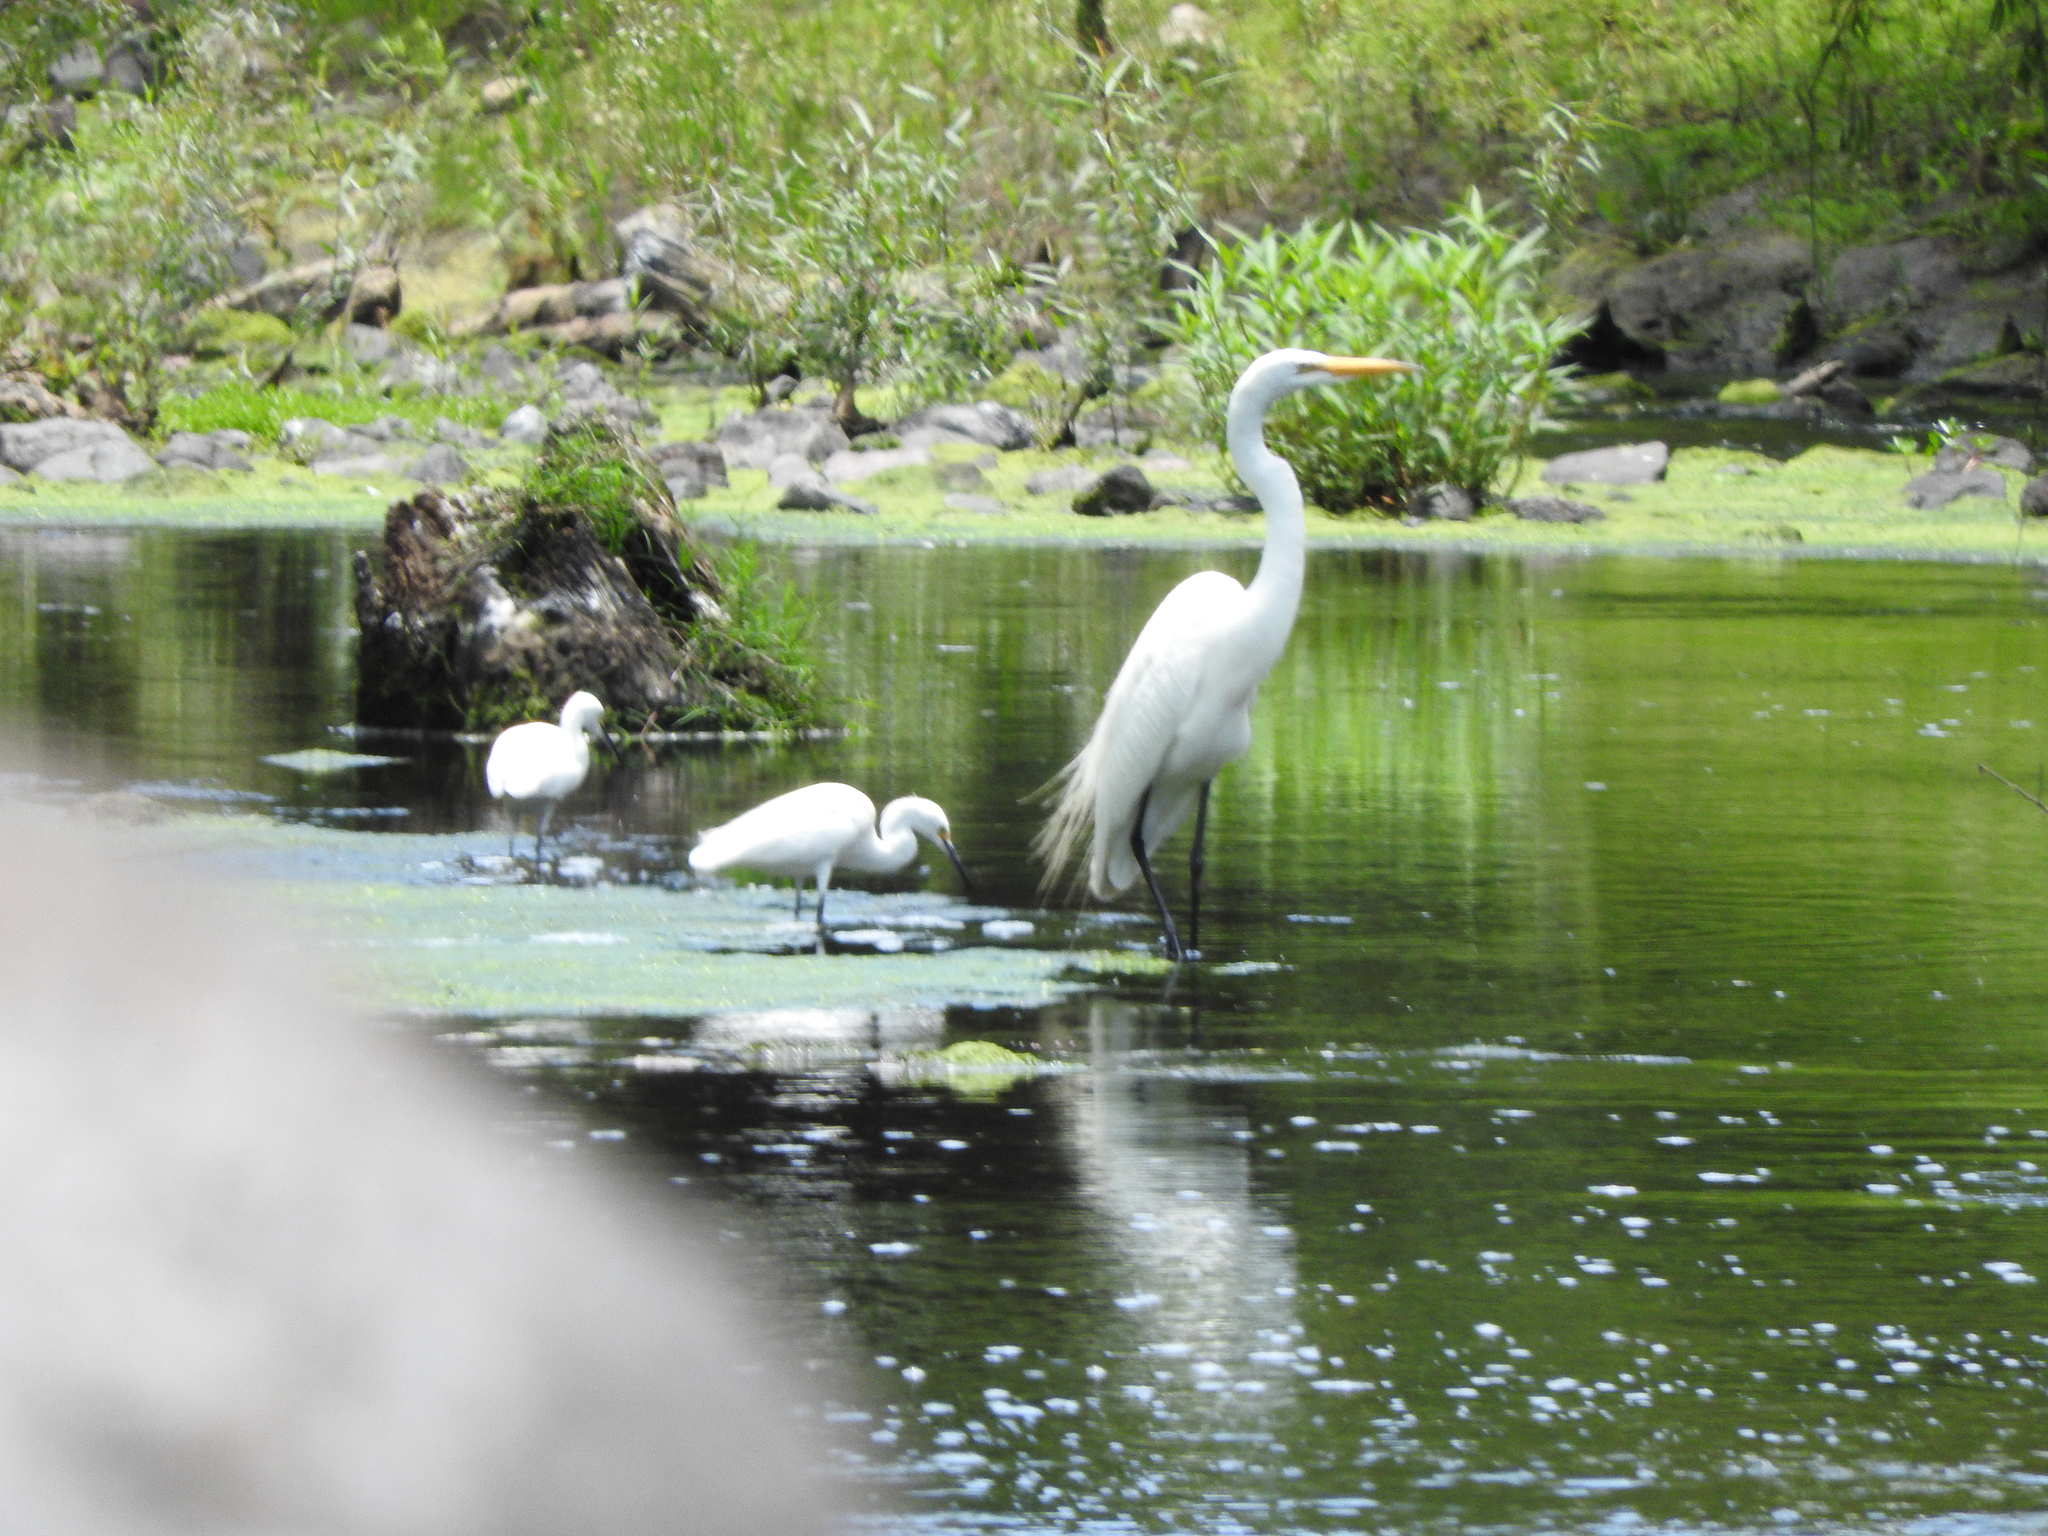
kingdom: Animalia
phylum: Chordata
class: Aves
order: Pelecaniformes
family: Ardeidae
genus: Ardea
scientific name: Ardea alba
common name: Great egret
